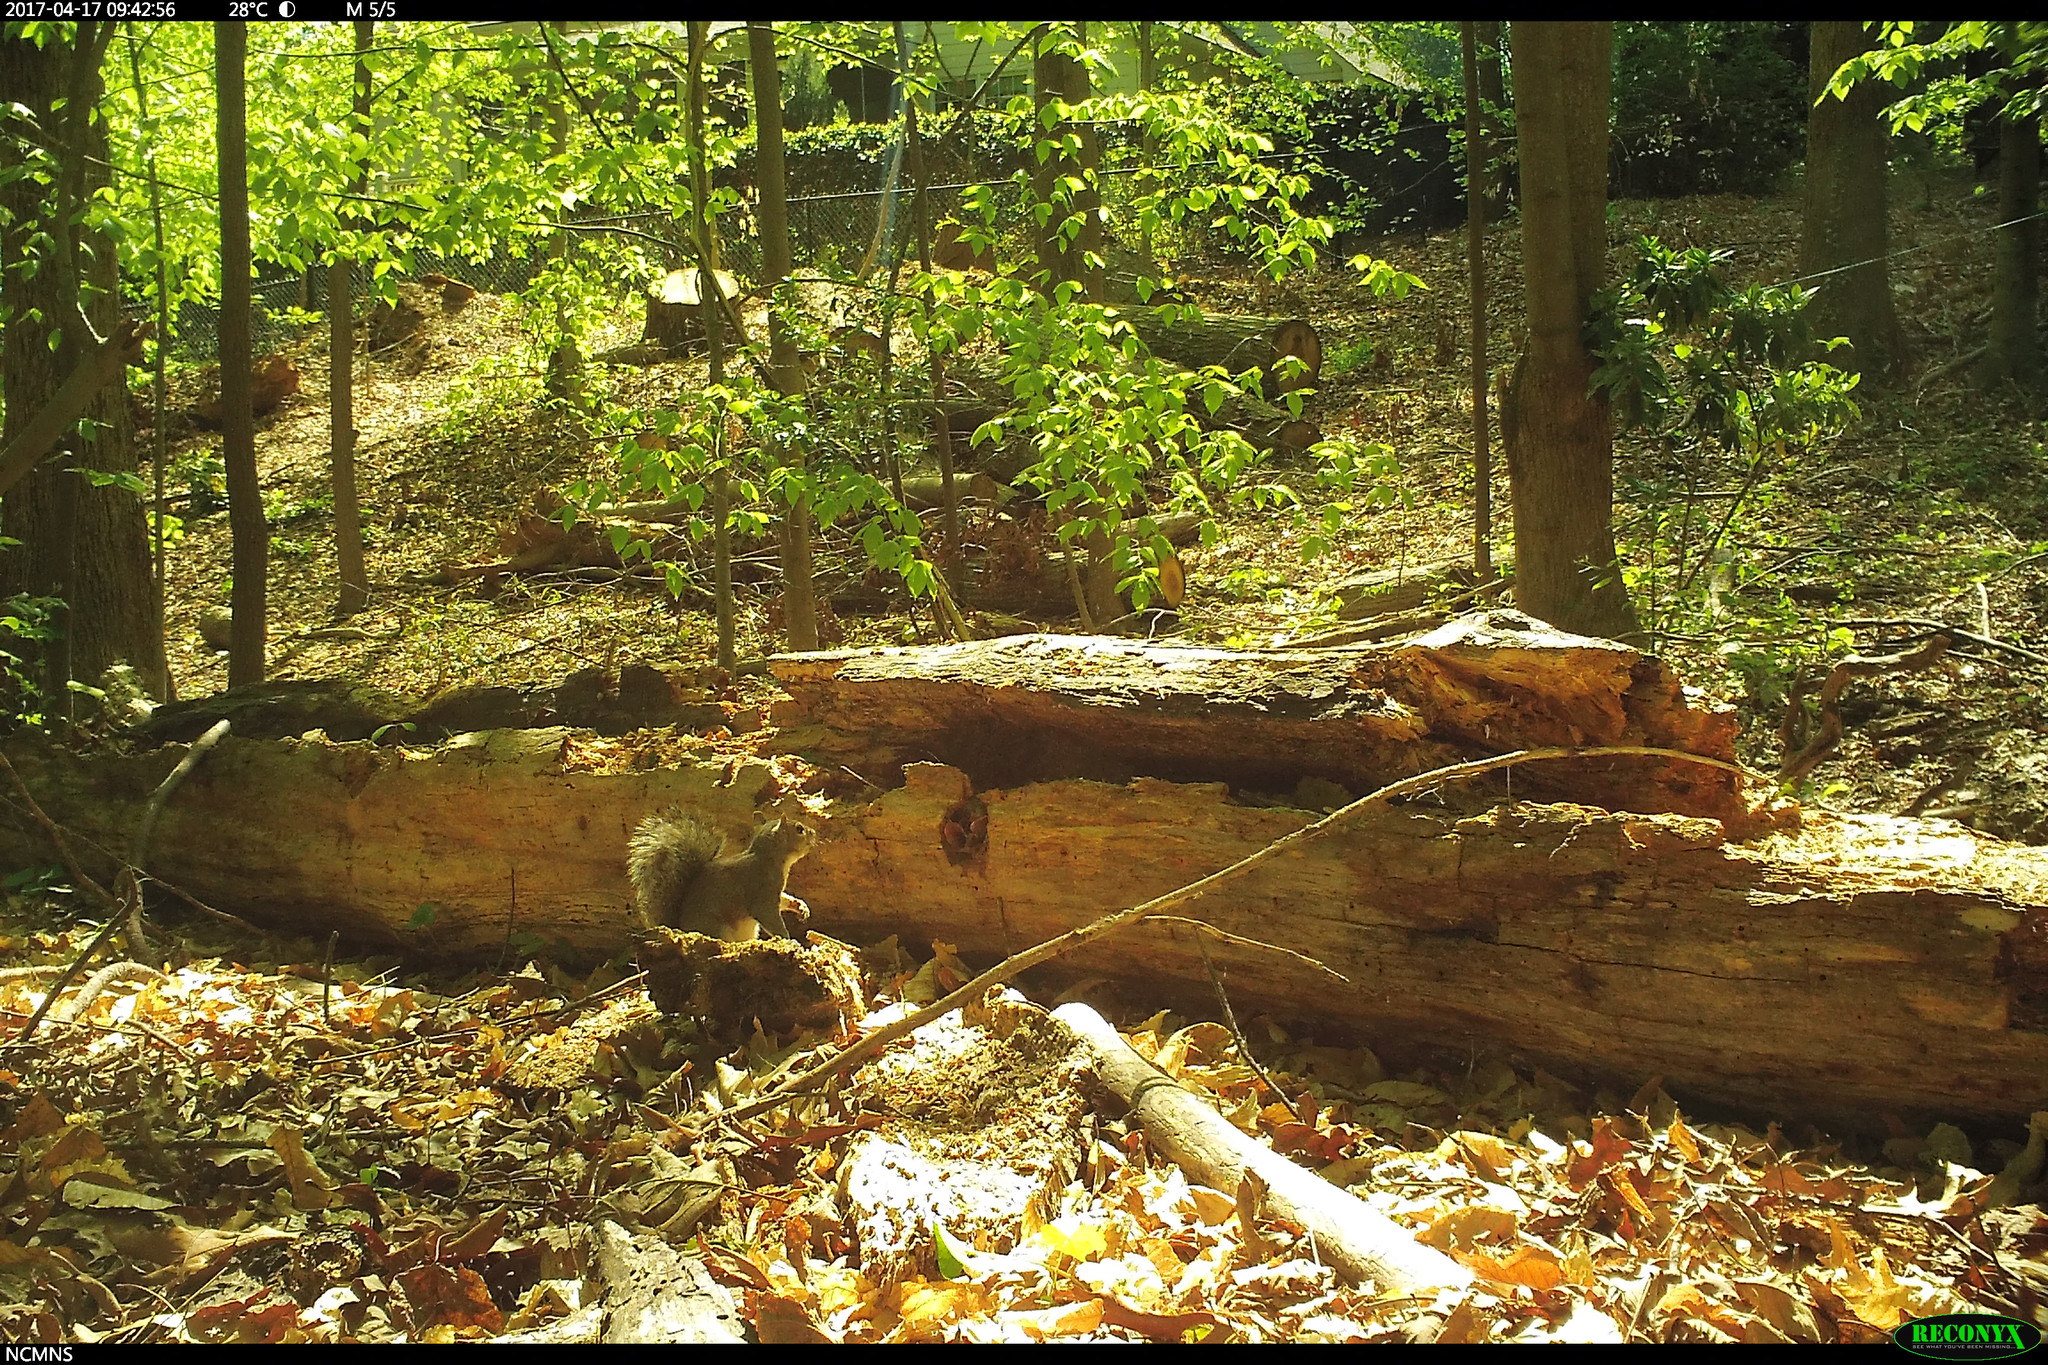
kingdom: Animalia
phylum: Chordata
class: Mammalia
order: Rodentia
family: Sciuridae
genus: Sciurus
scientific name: Sciurus carolinensis
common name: Eastern gray squirrel
